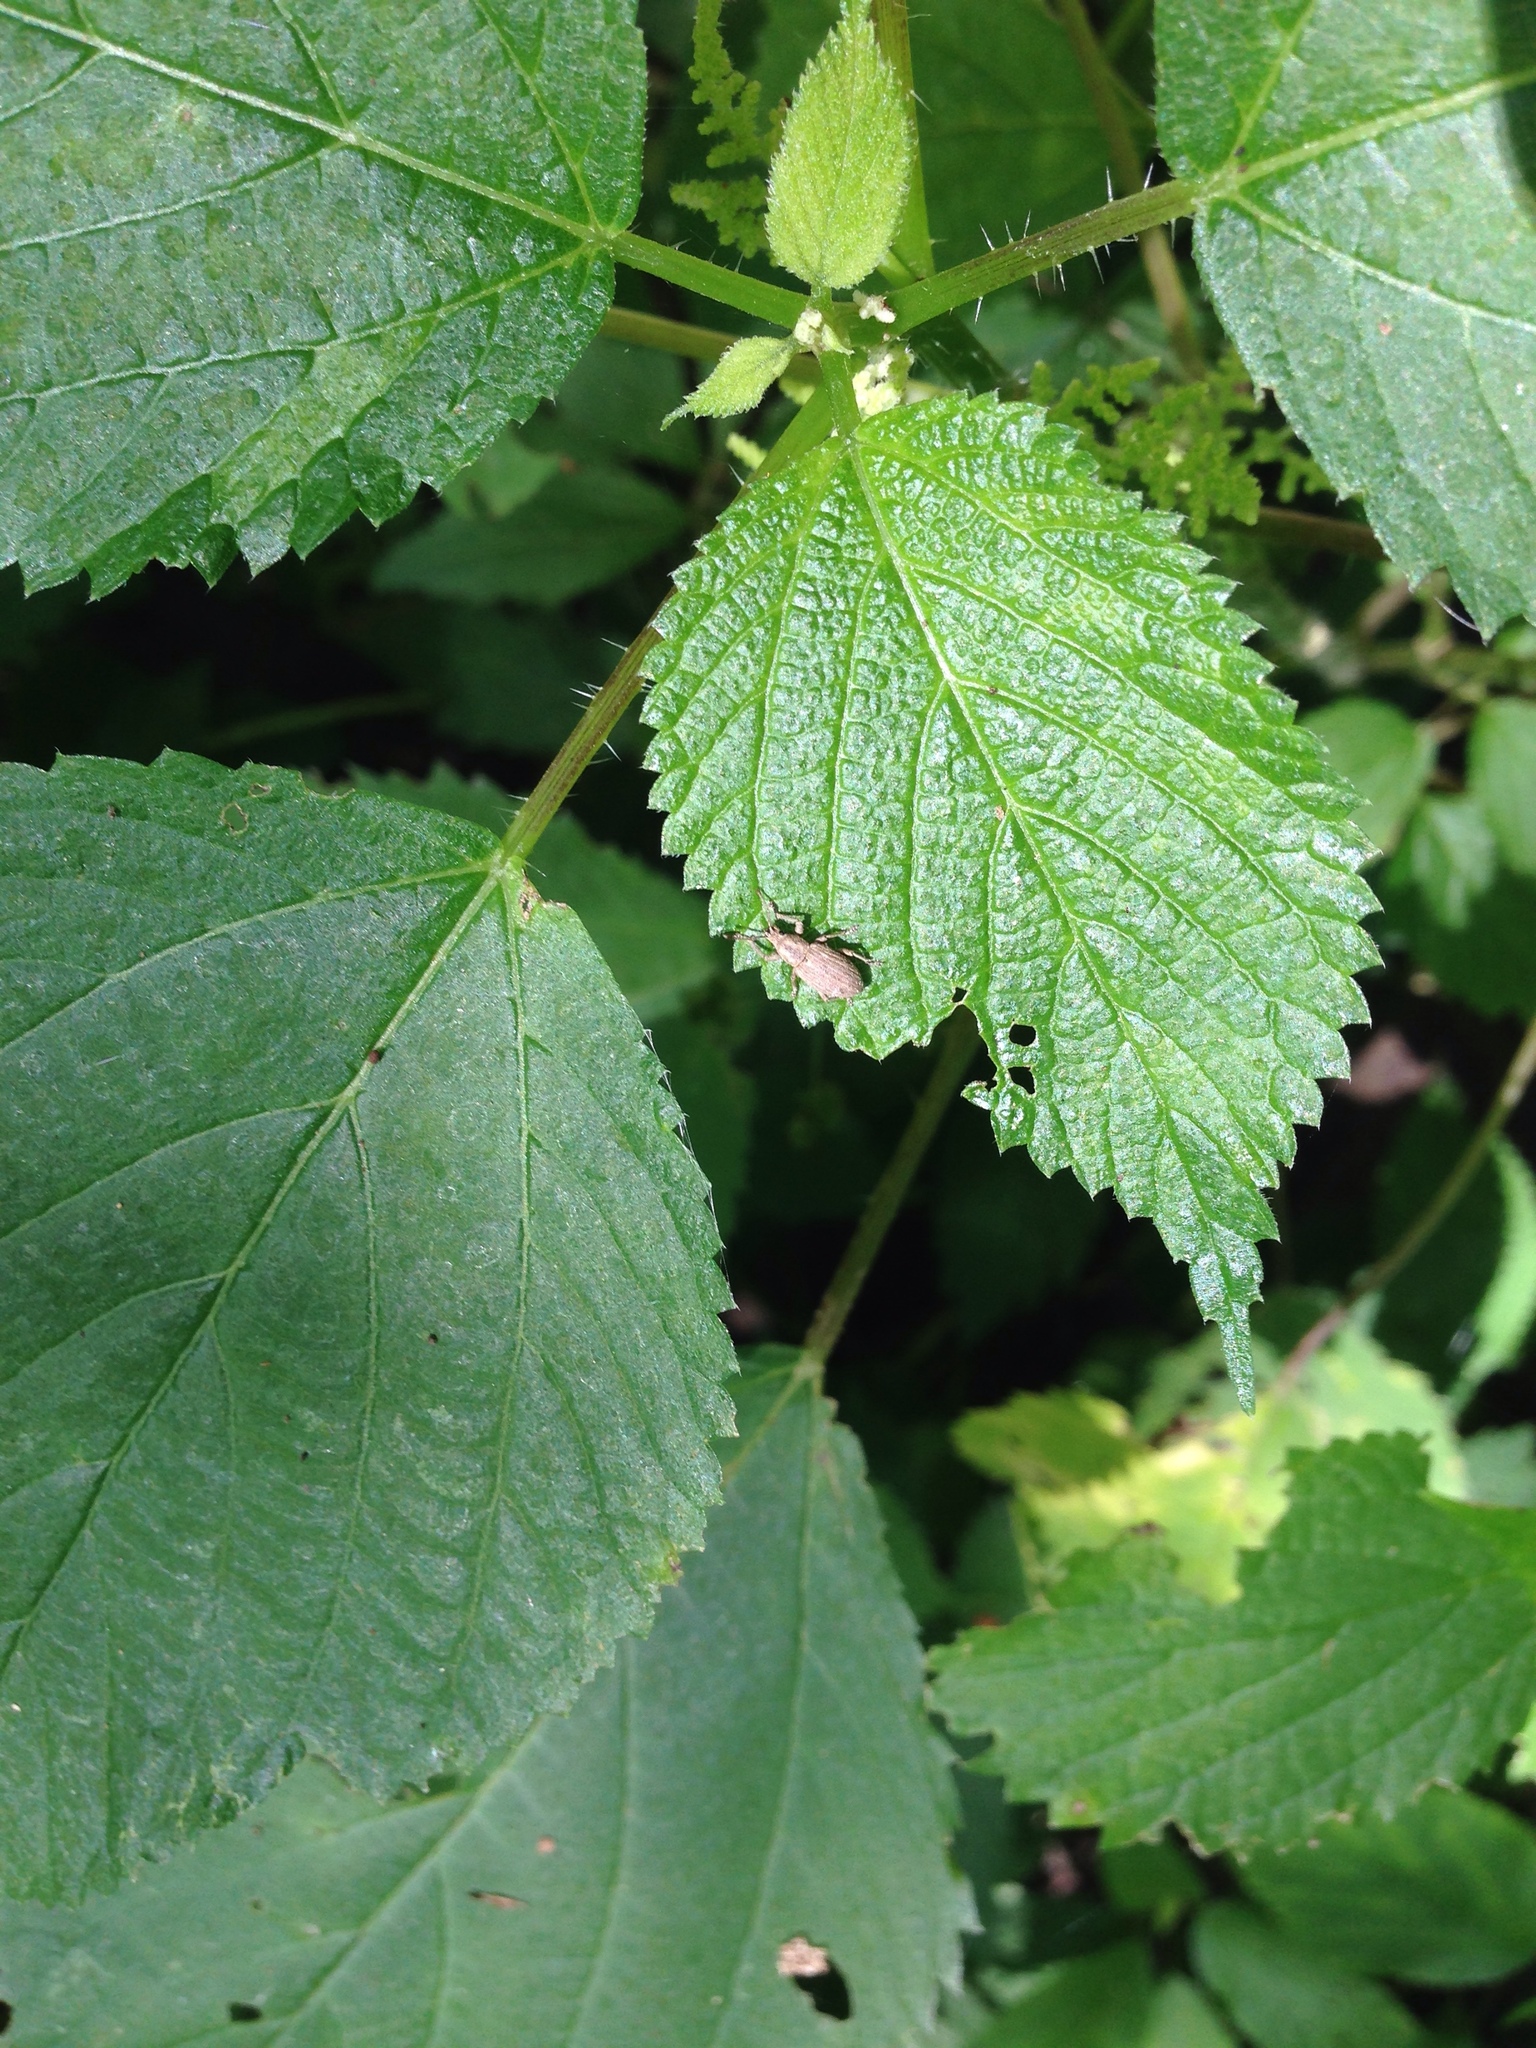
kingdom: Animalia
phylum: Arthropoda
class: Insecta
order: Coleoptera
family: Curculionidae
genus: Aphrastus
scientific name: Aphrastus taeniatus
